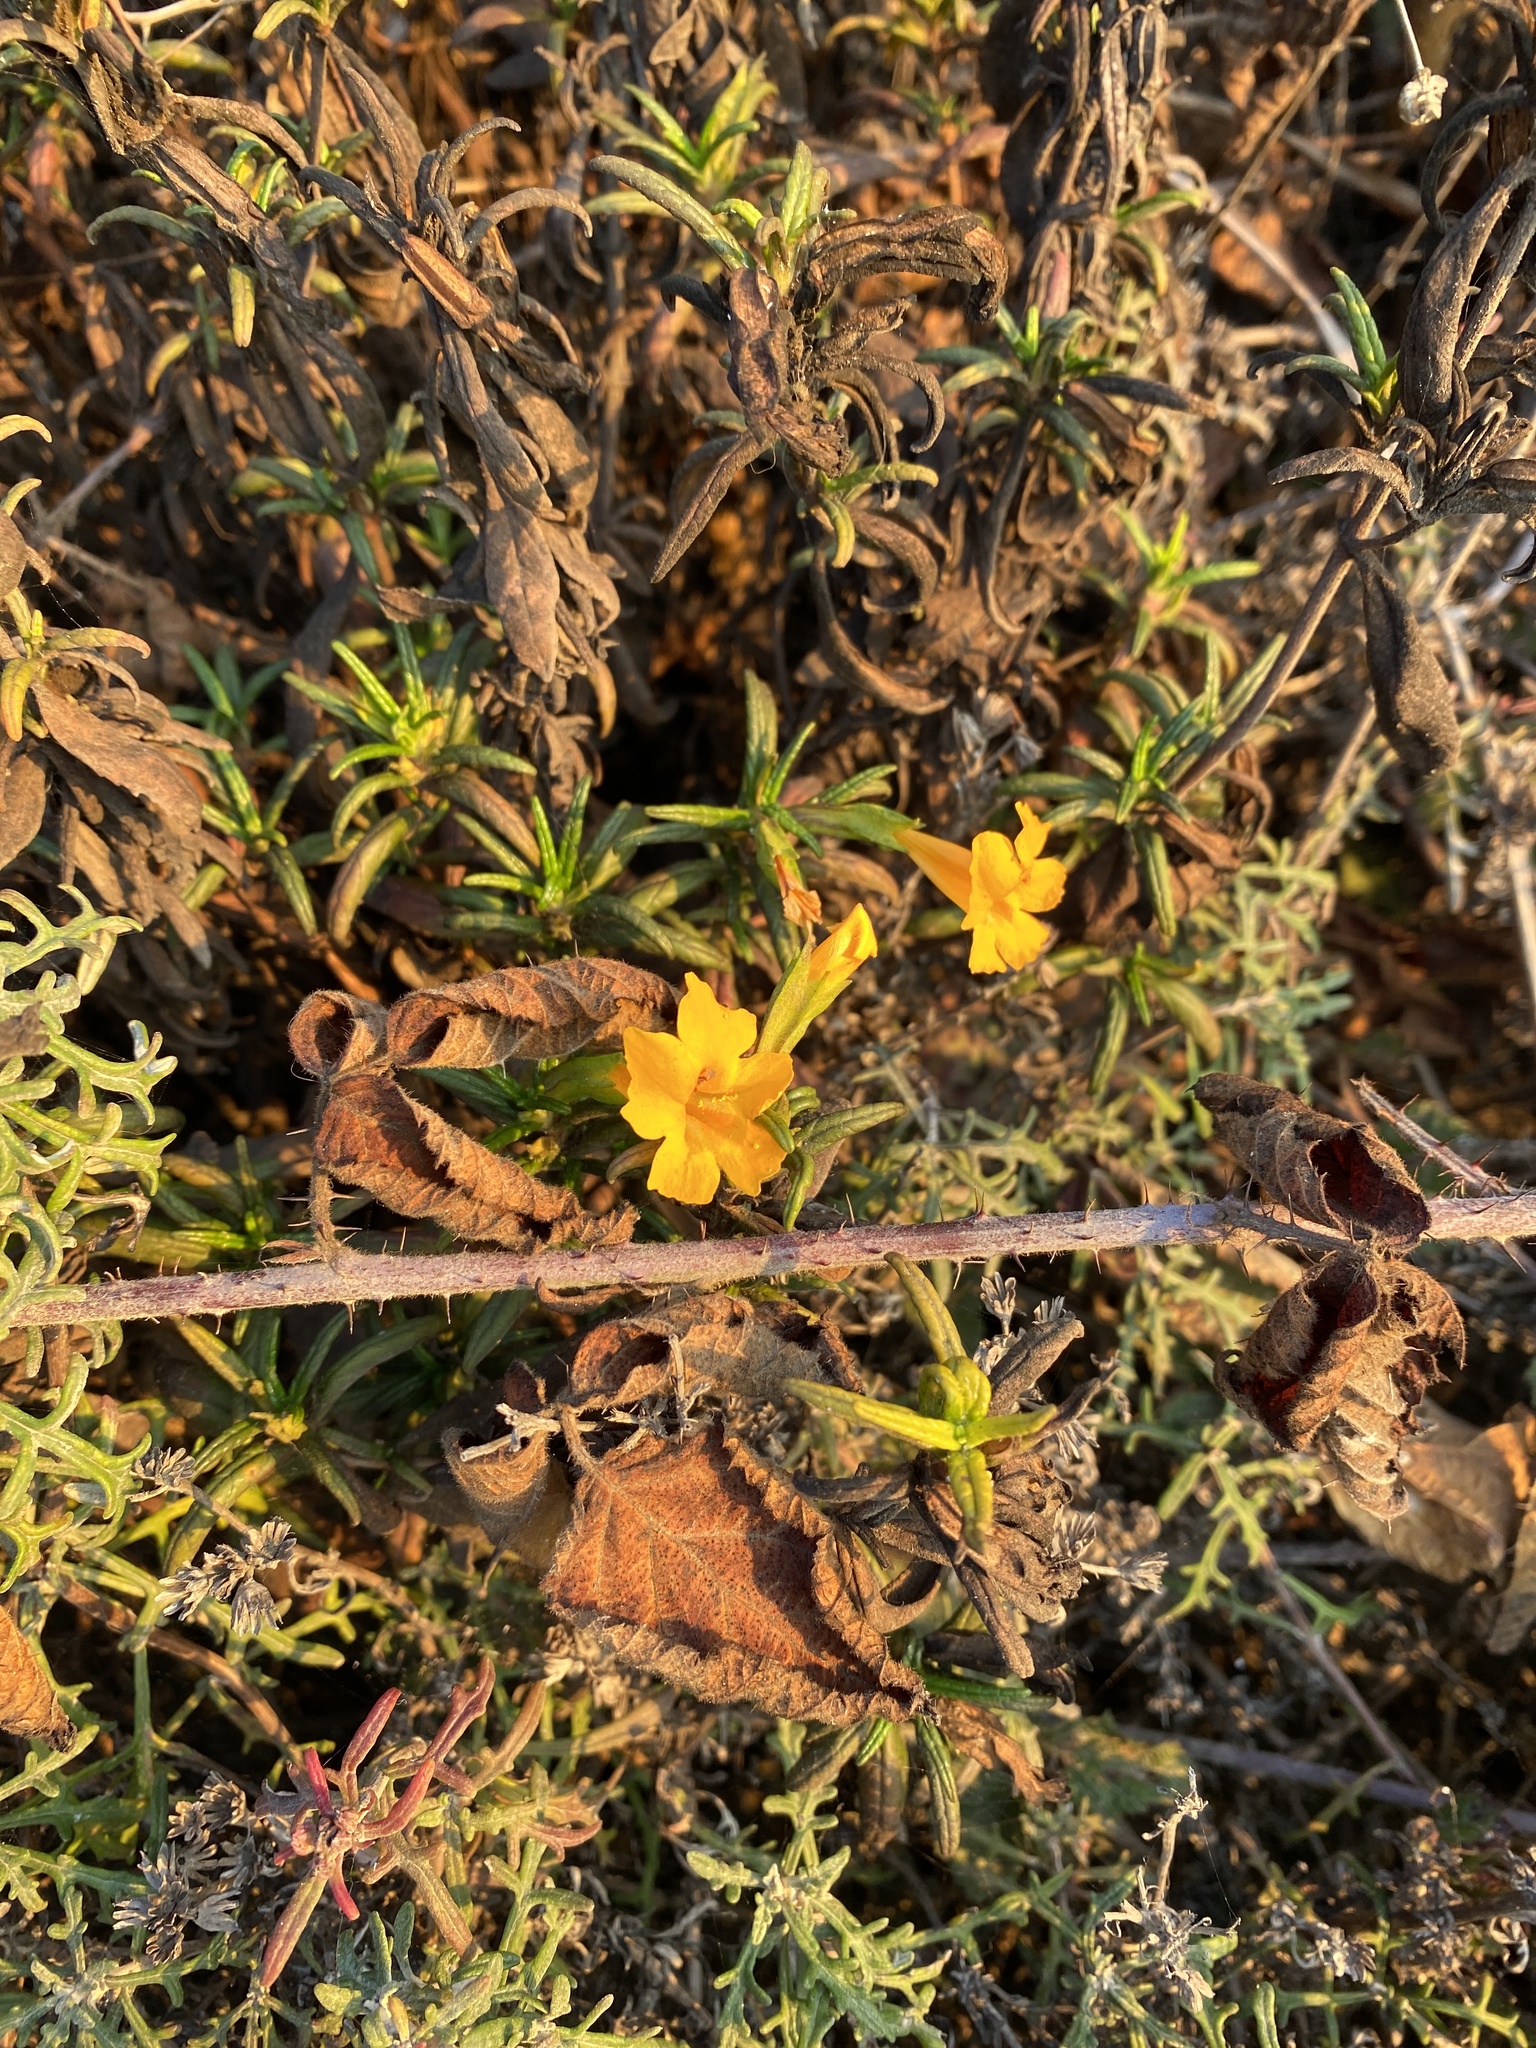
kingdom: Plantae
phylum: Tracheophyta
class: Magnoliopsida
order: Lamiales
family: Phrymaceae
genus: Diplacus
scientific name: Diplacus aurantiacus
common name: Bush monkey-flower
